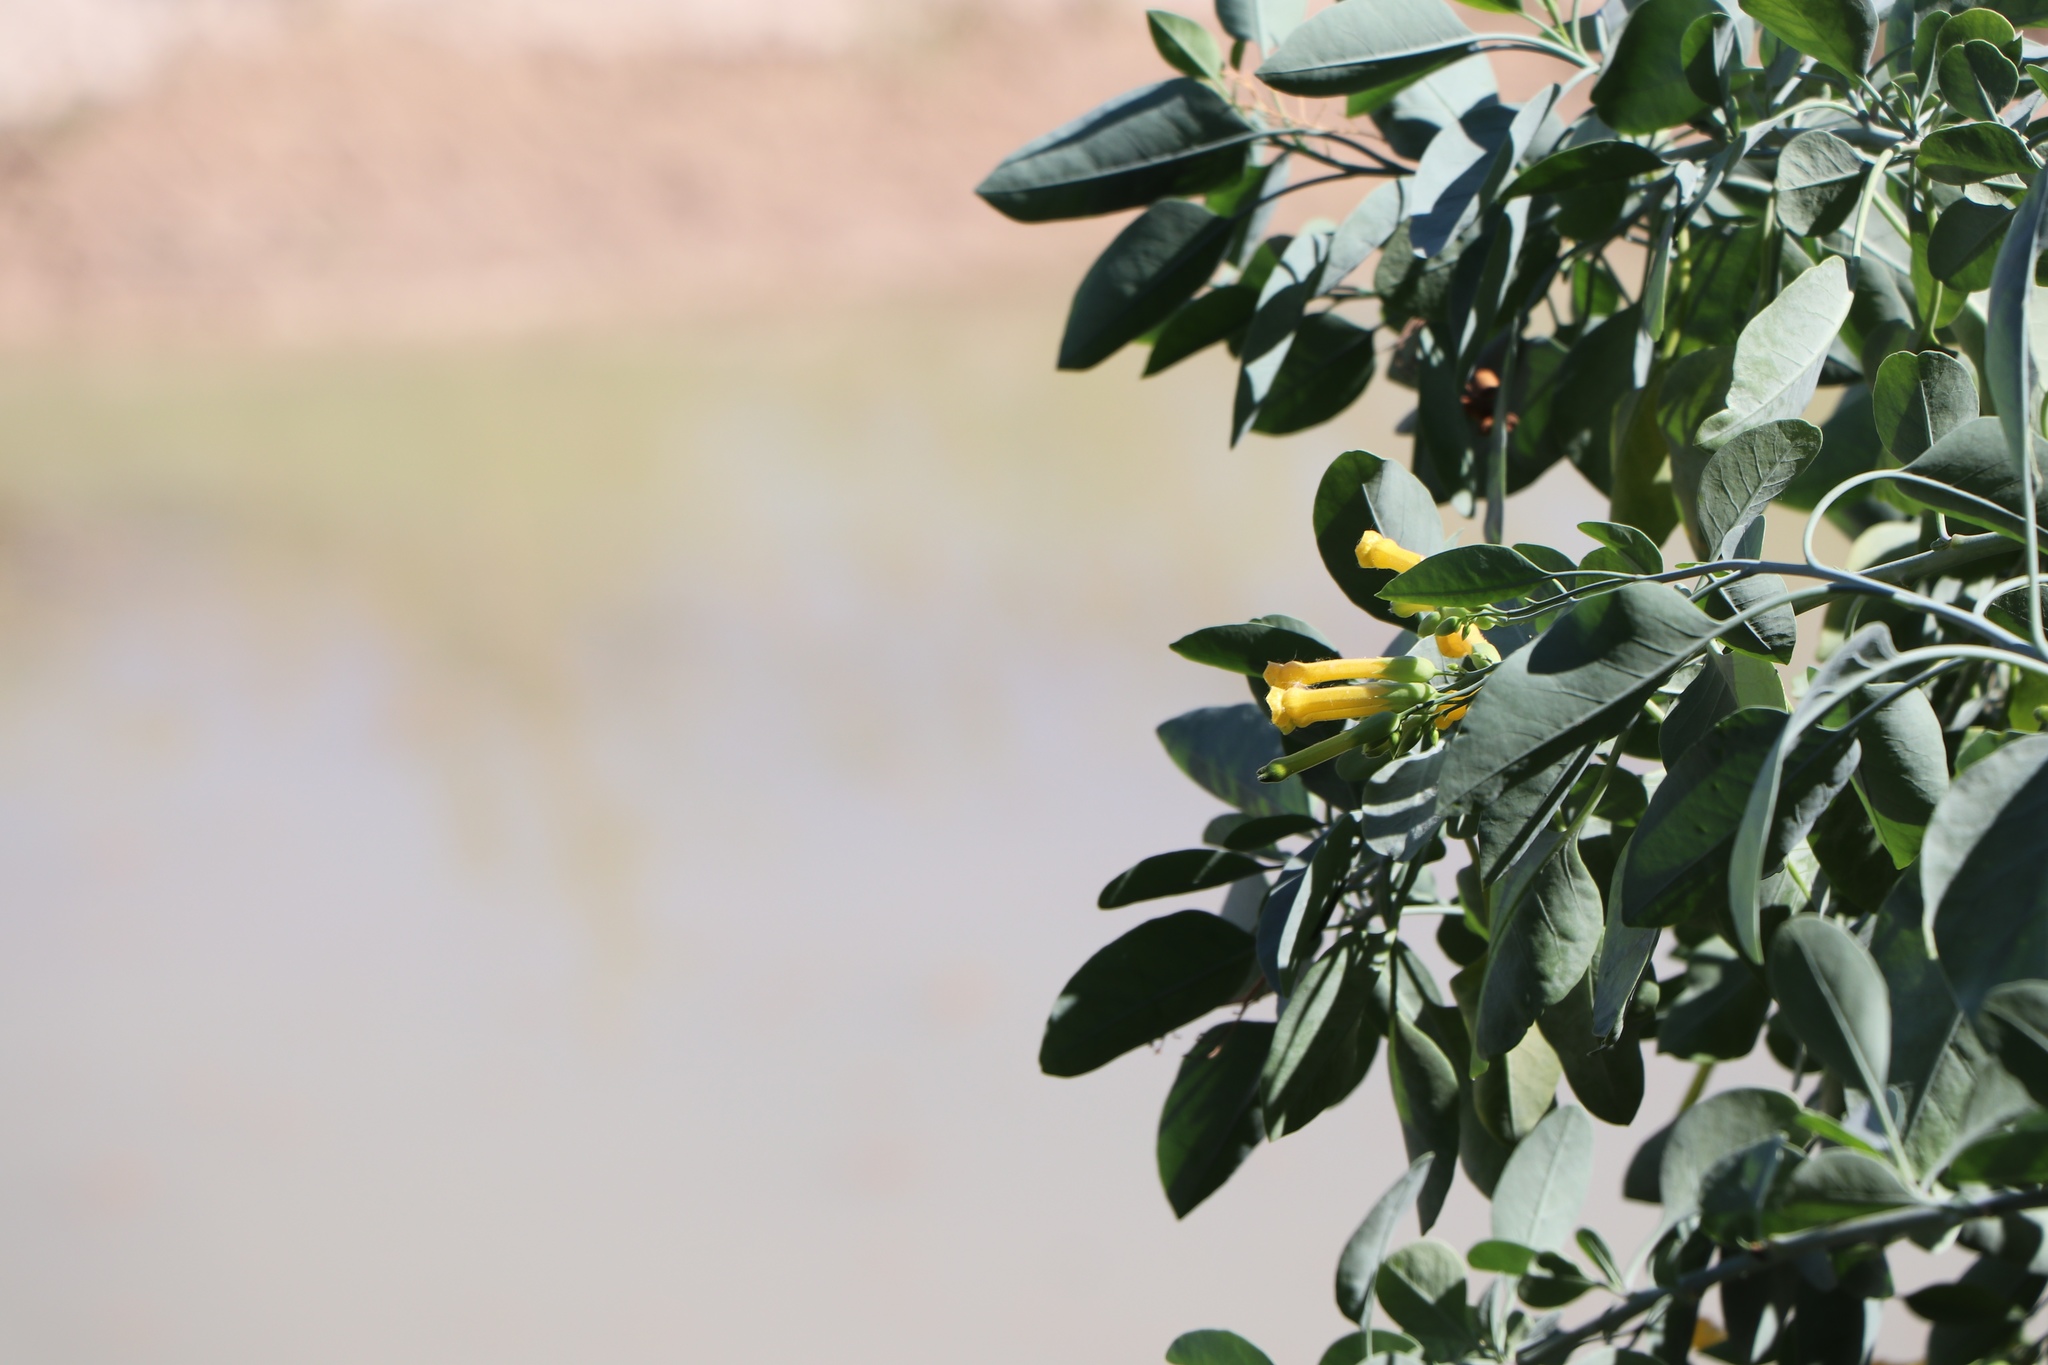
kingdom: Plantae
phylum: Tracheophyta
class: Magnoliopsida
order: Solanales
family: Solanaceae
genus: Nicotiana
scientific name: Nicotiana glauca
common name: Tree tobacco
